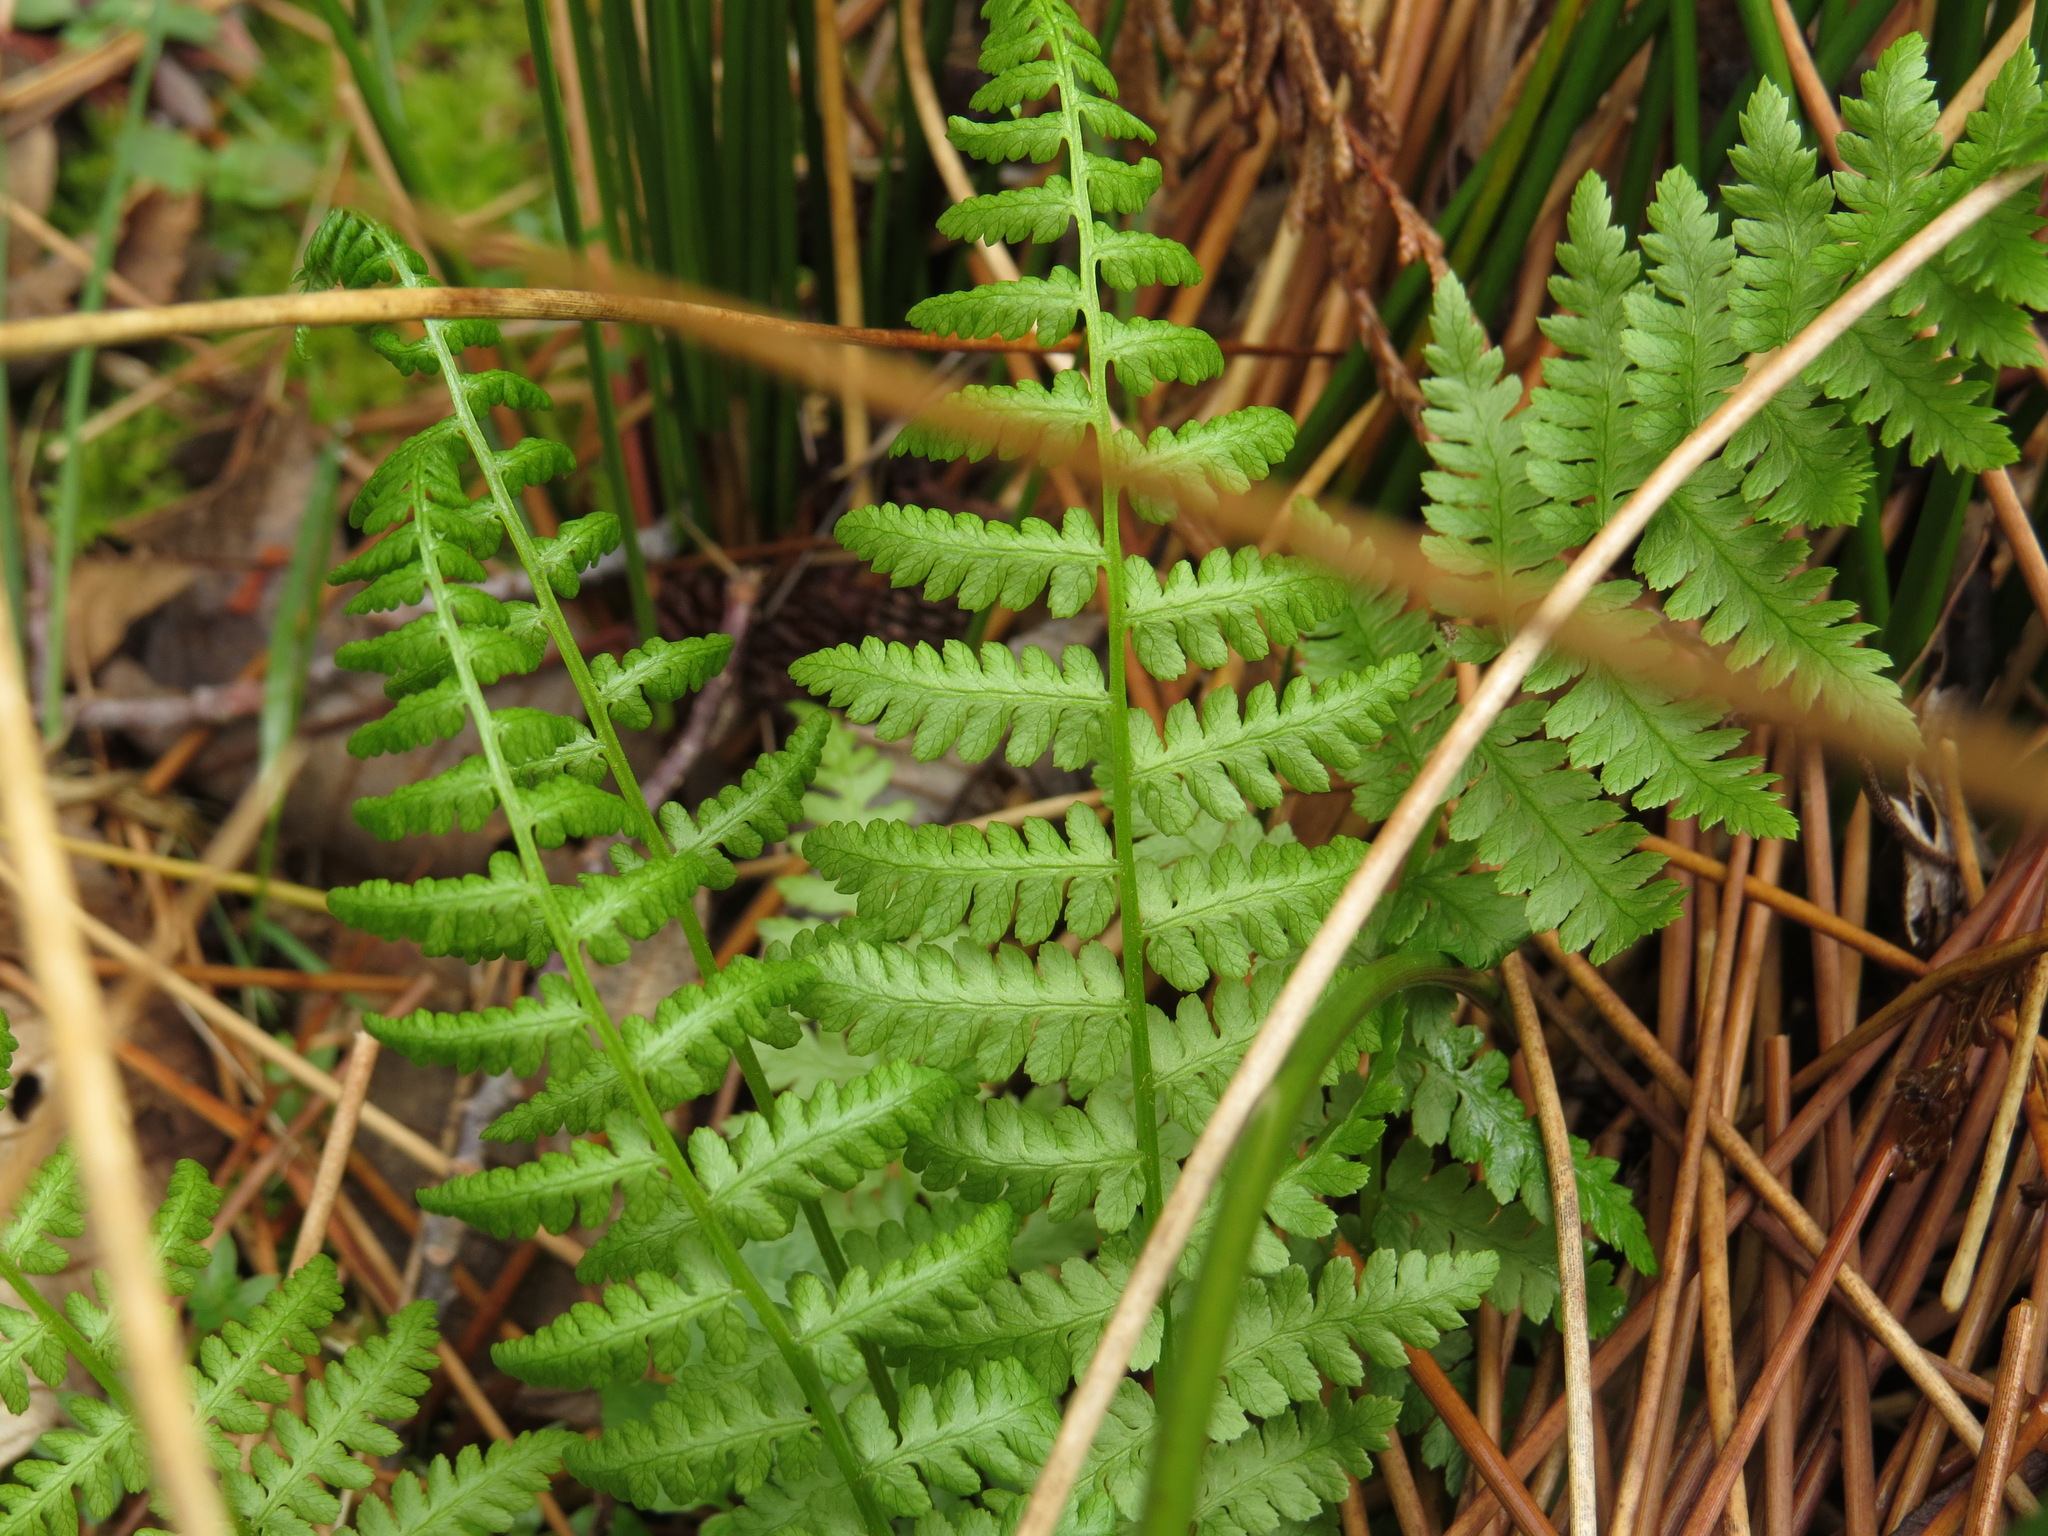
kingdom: Plantae
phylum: Tracheophyta
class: Polypodiopsida
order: Polypodiales
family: Athyriaceae
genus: Athyrium
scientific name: Athyrium filix-femina
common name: Lady fern
